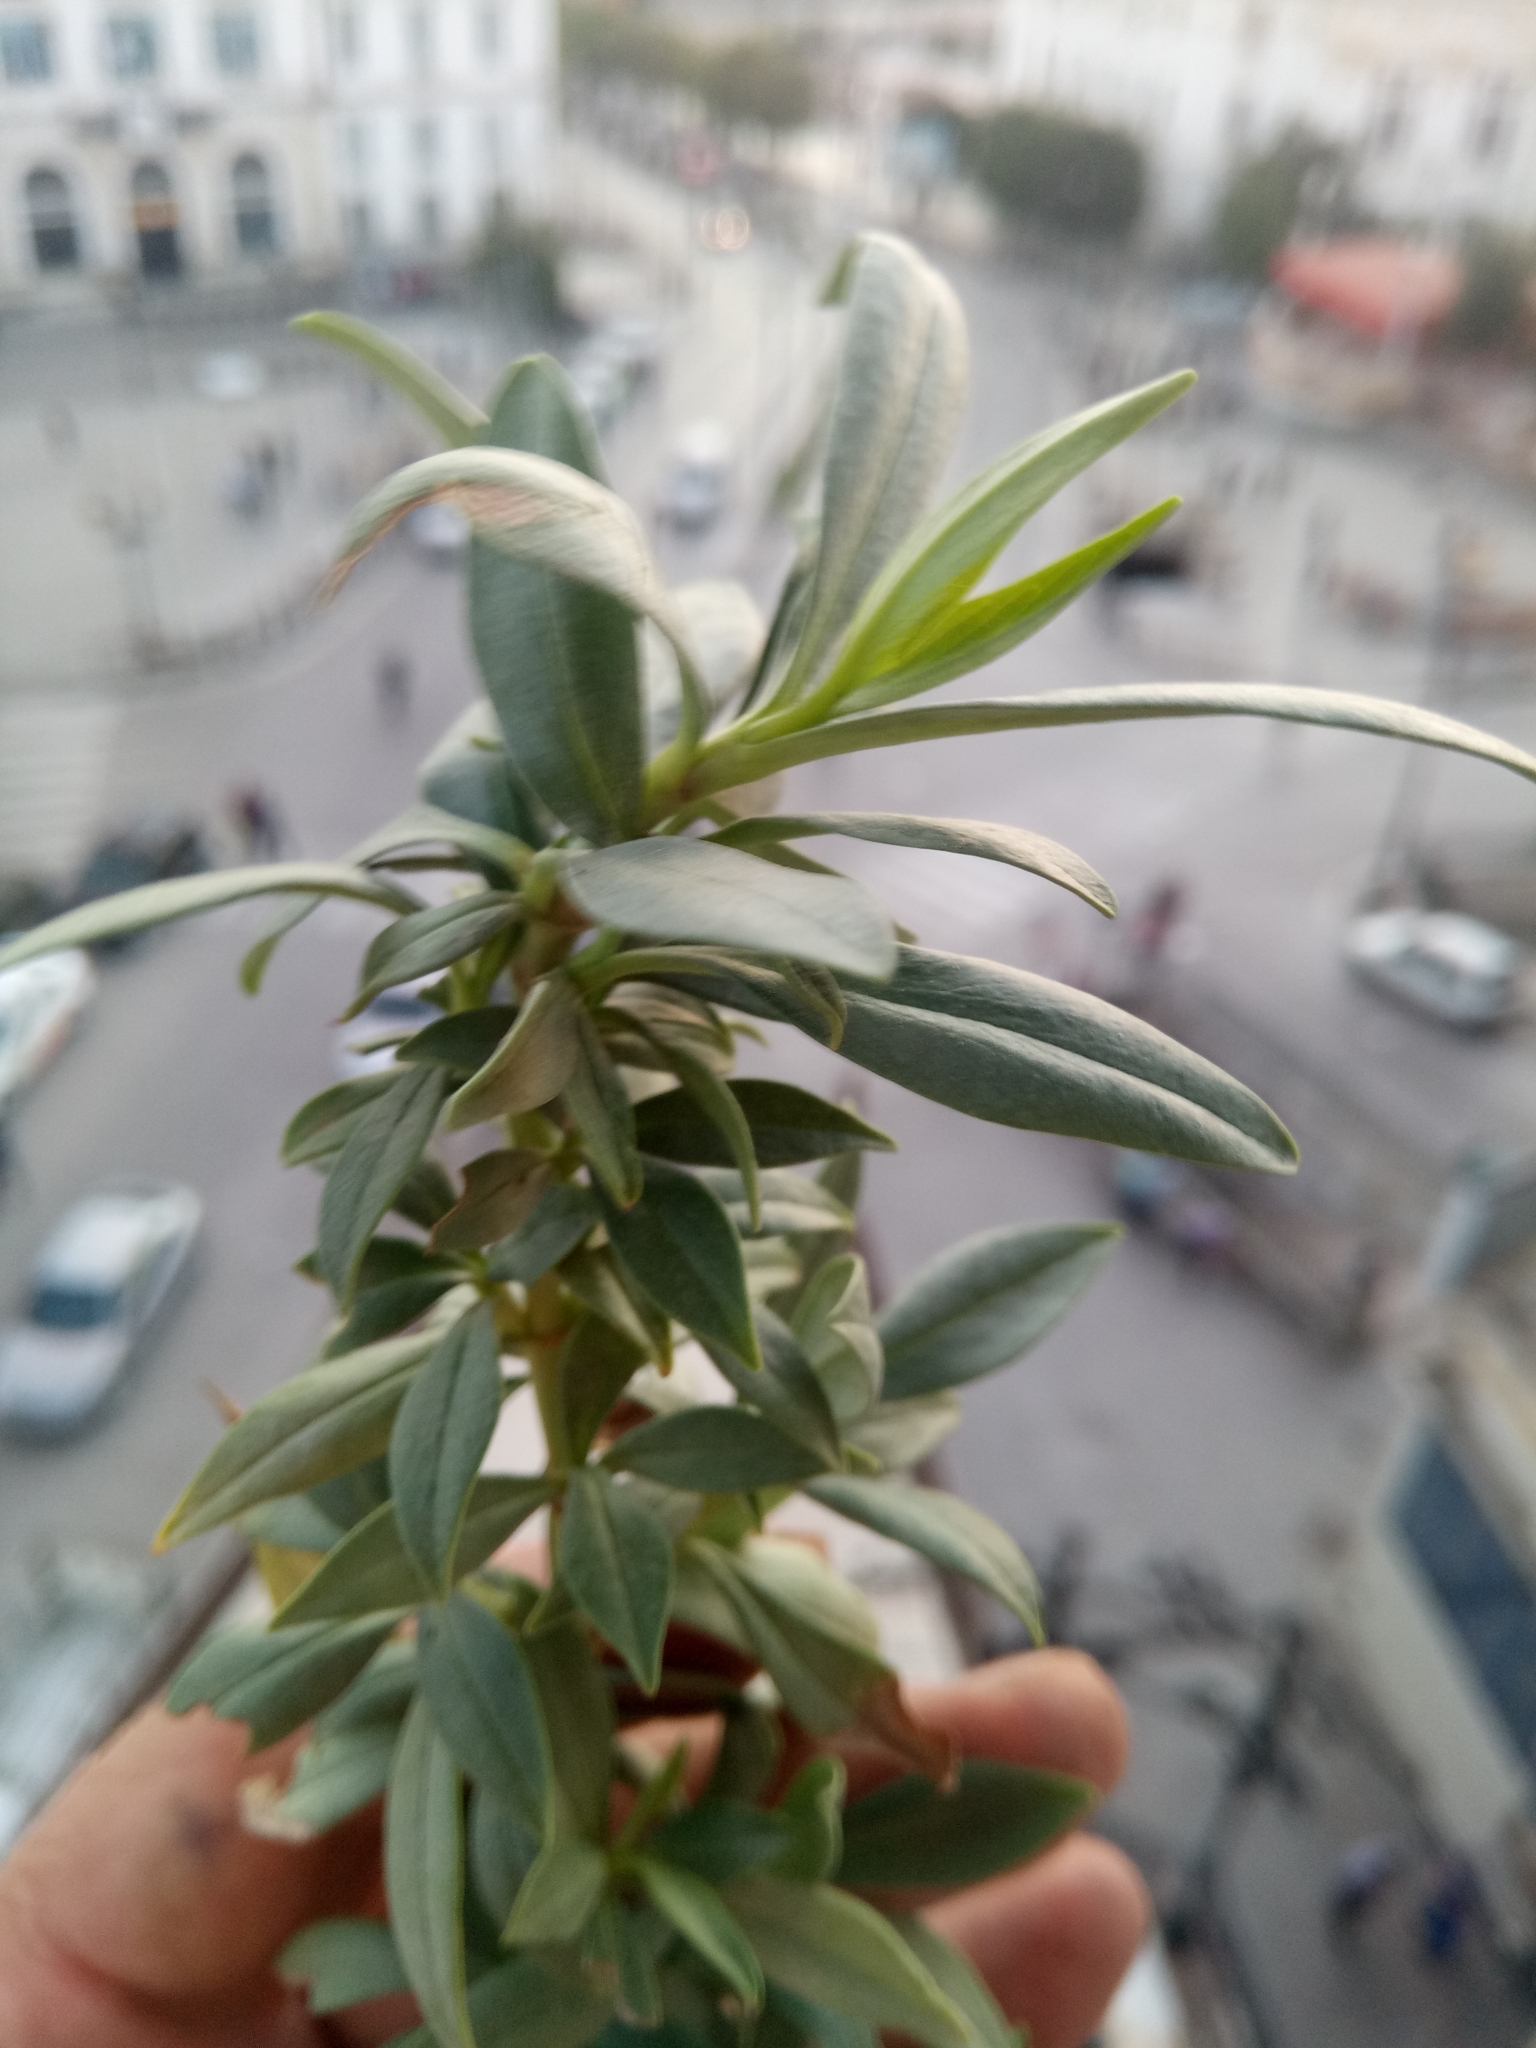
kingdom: Plantae
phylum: Tracheophyta
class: Magnoliopsida
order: Dipsacales
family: Caprifoliaceae
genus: Centranthus
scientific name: Centranthus ruber
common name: Red valerian
